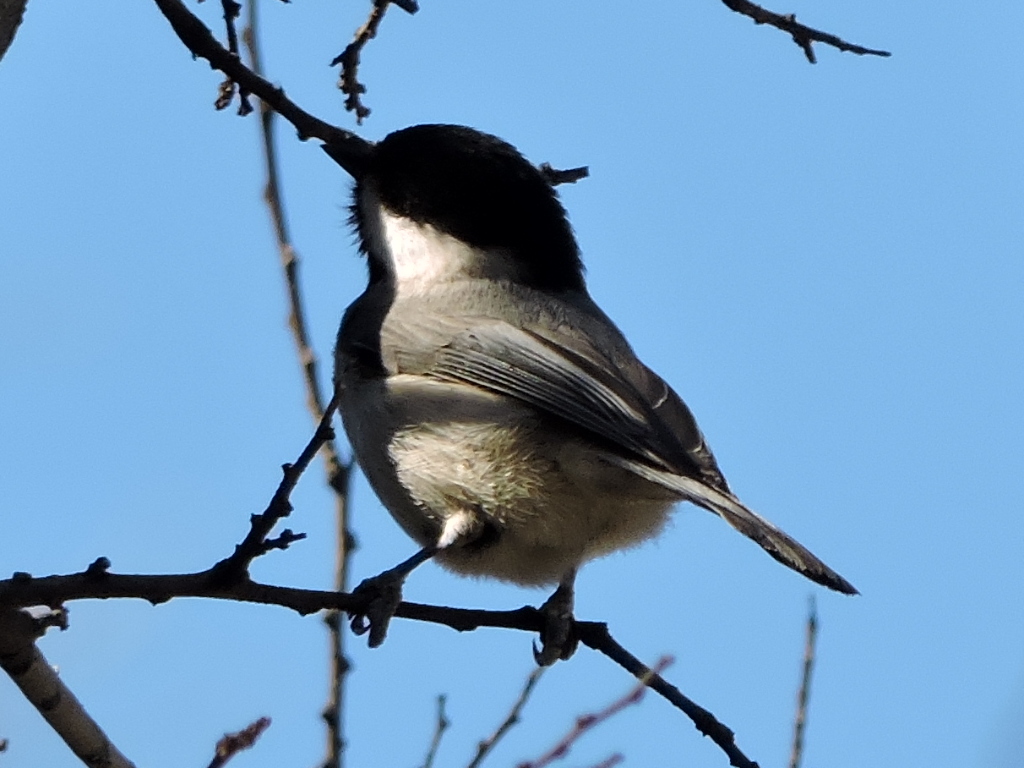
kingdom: Animalia
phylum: Chordata
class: Aves
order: Passeriformes
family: Paridae
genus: Poecile
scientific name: Poecile carolinensis
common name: Carolina chickadee
